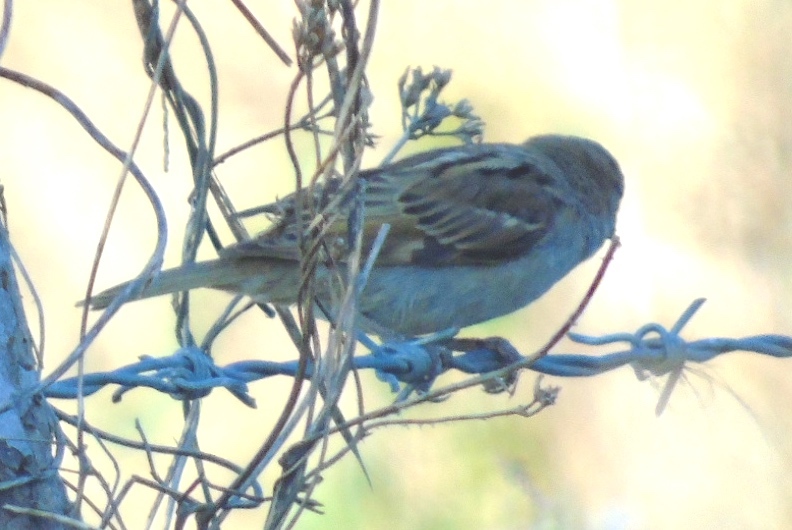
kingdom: Animalia
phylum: Chordata
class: Aves
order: Passeriformes
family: Passeridae
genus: Passer
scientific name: Passer domesticus
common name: House sparrow
